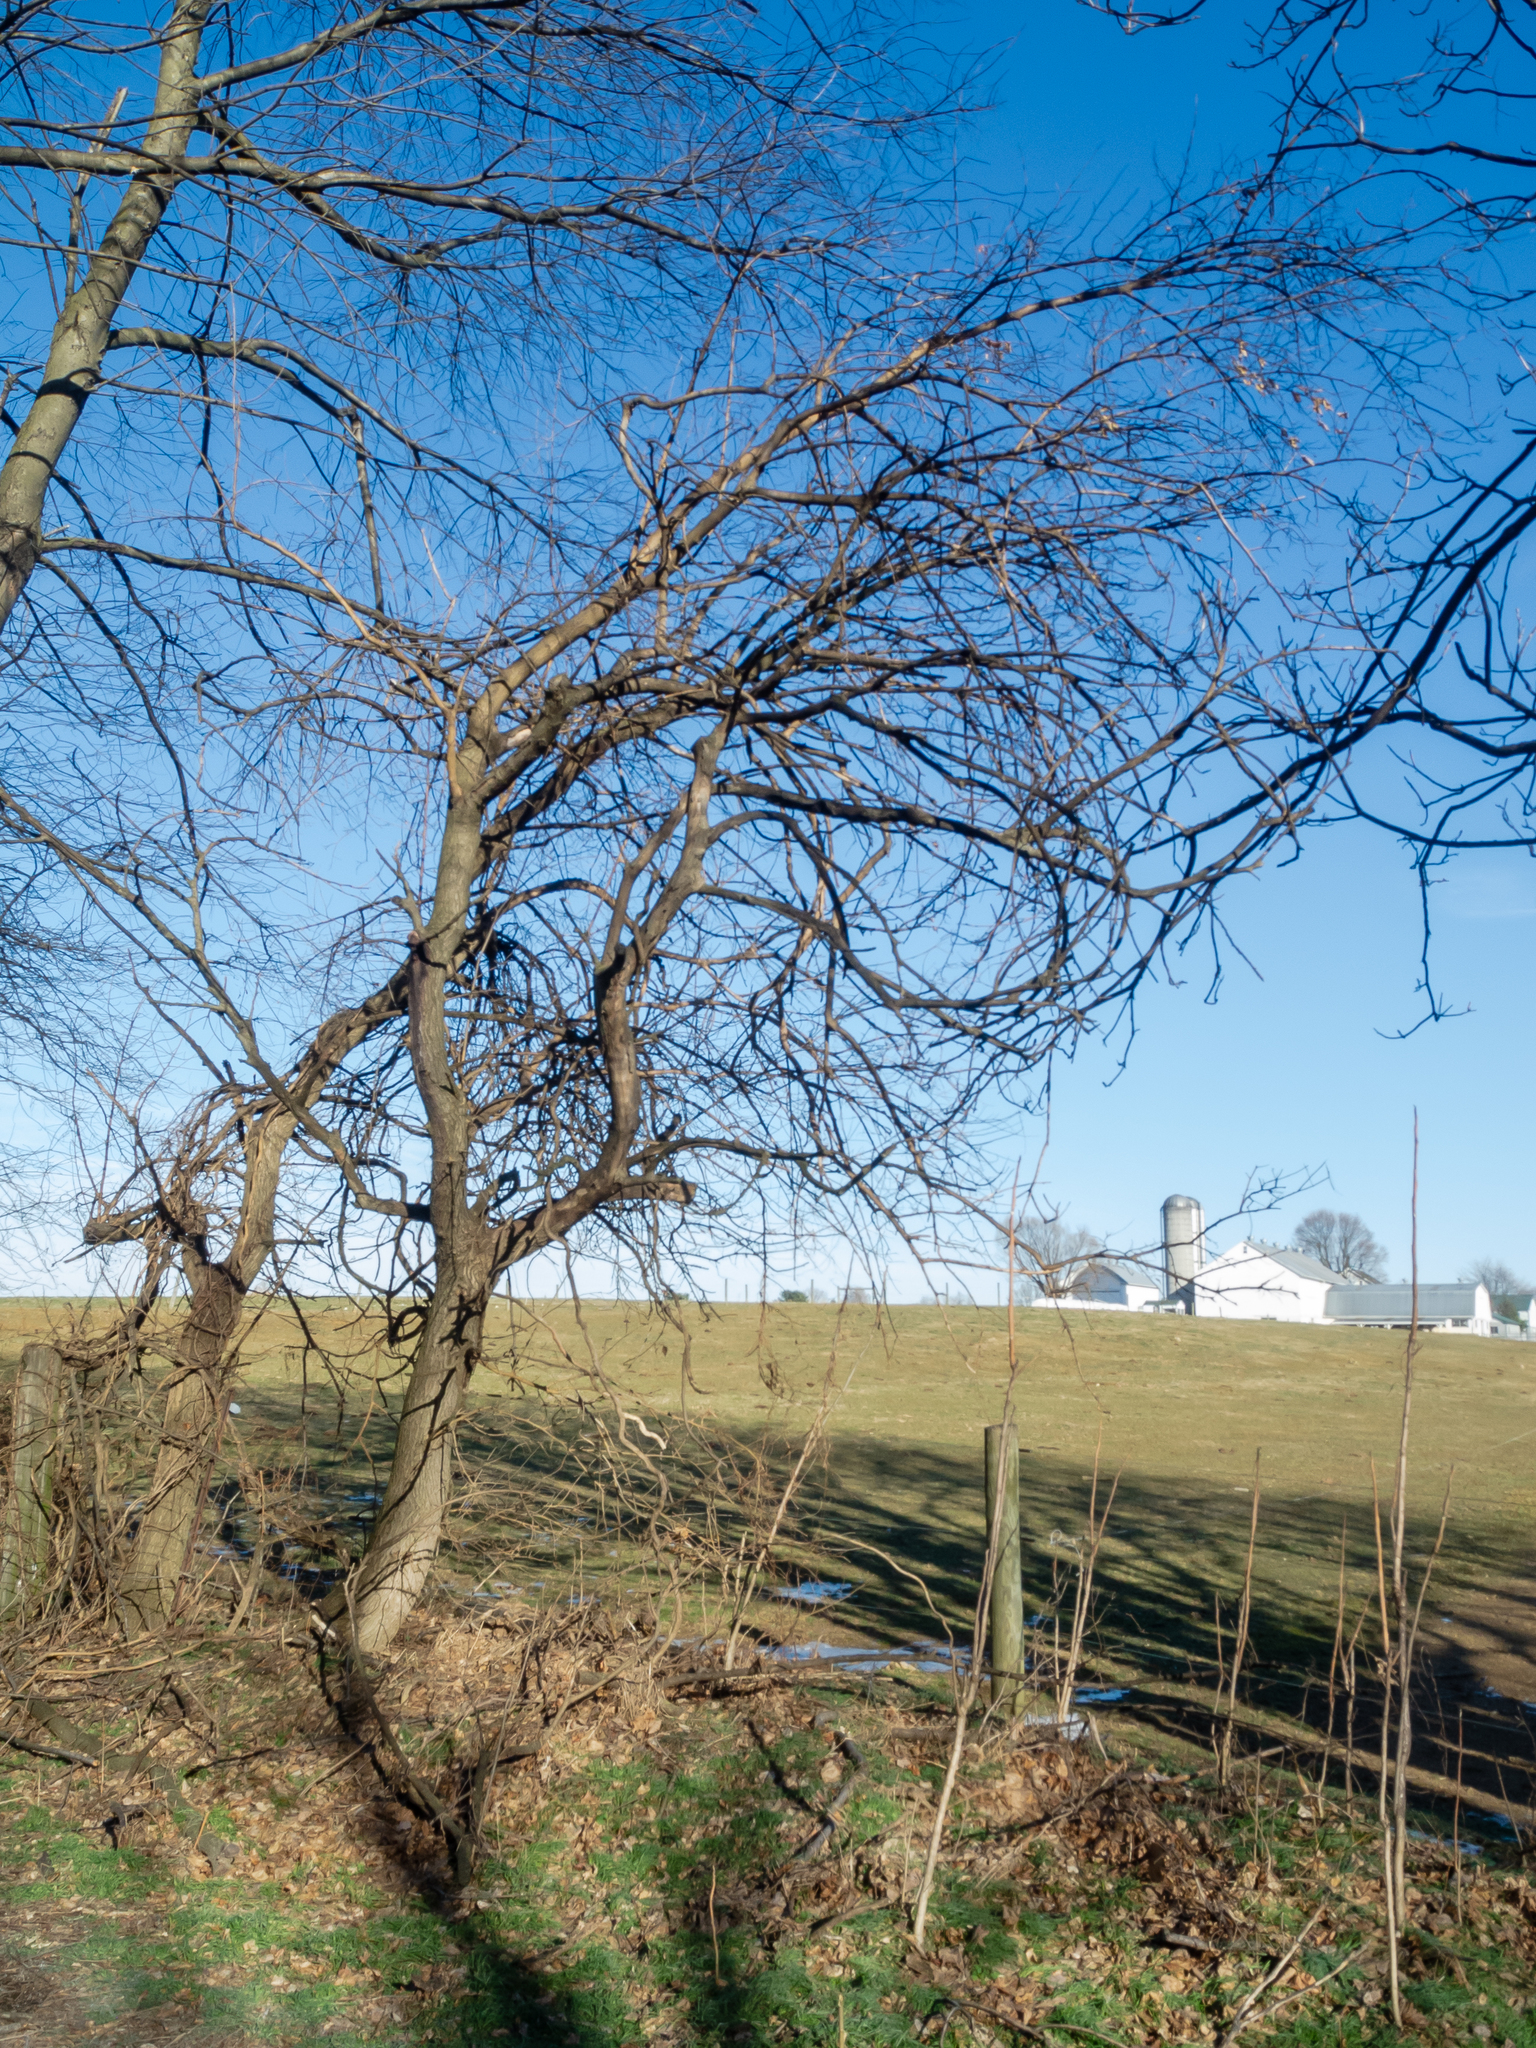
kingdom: Plantae
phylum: Tracheophyta
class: Magnoliopsida
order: Rosales
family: Moraceae
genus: Maclura
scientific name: Maclura pomifera
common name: Osage-orange
